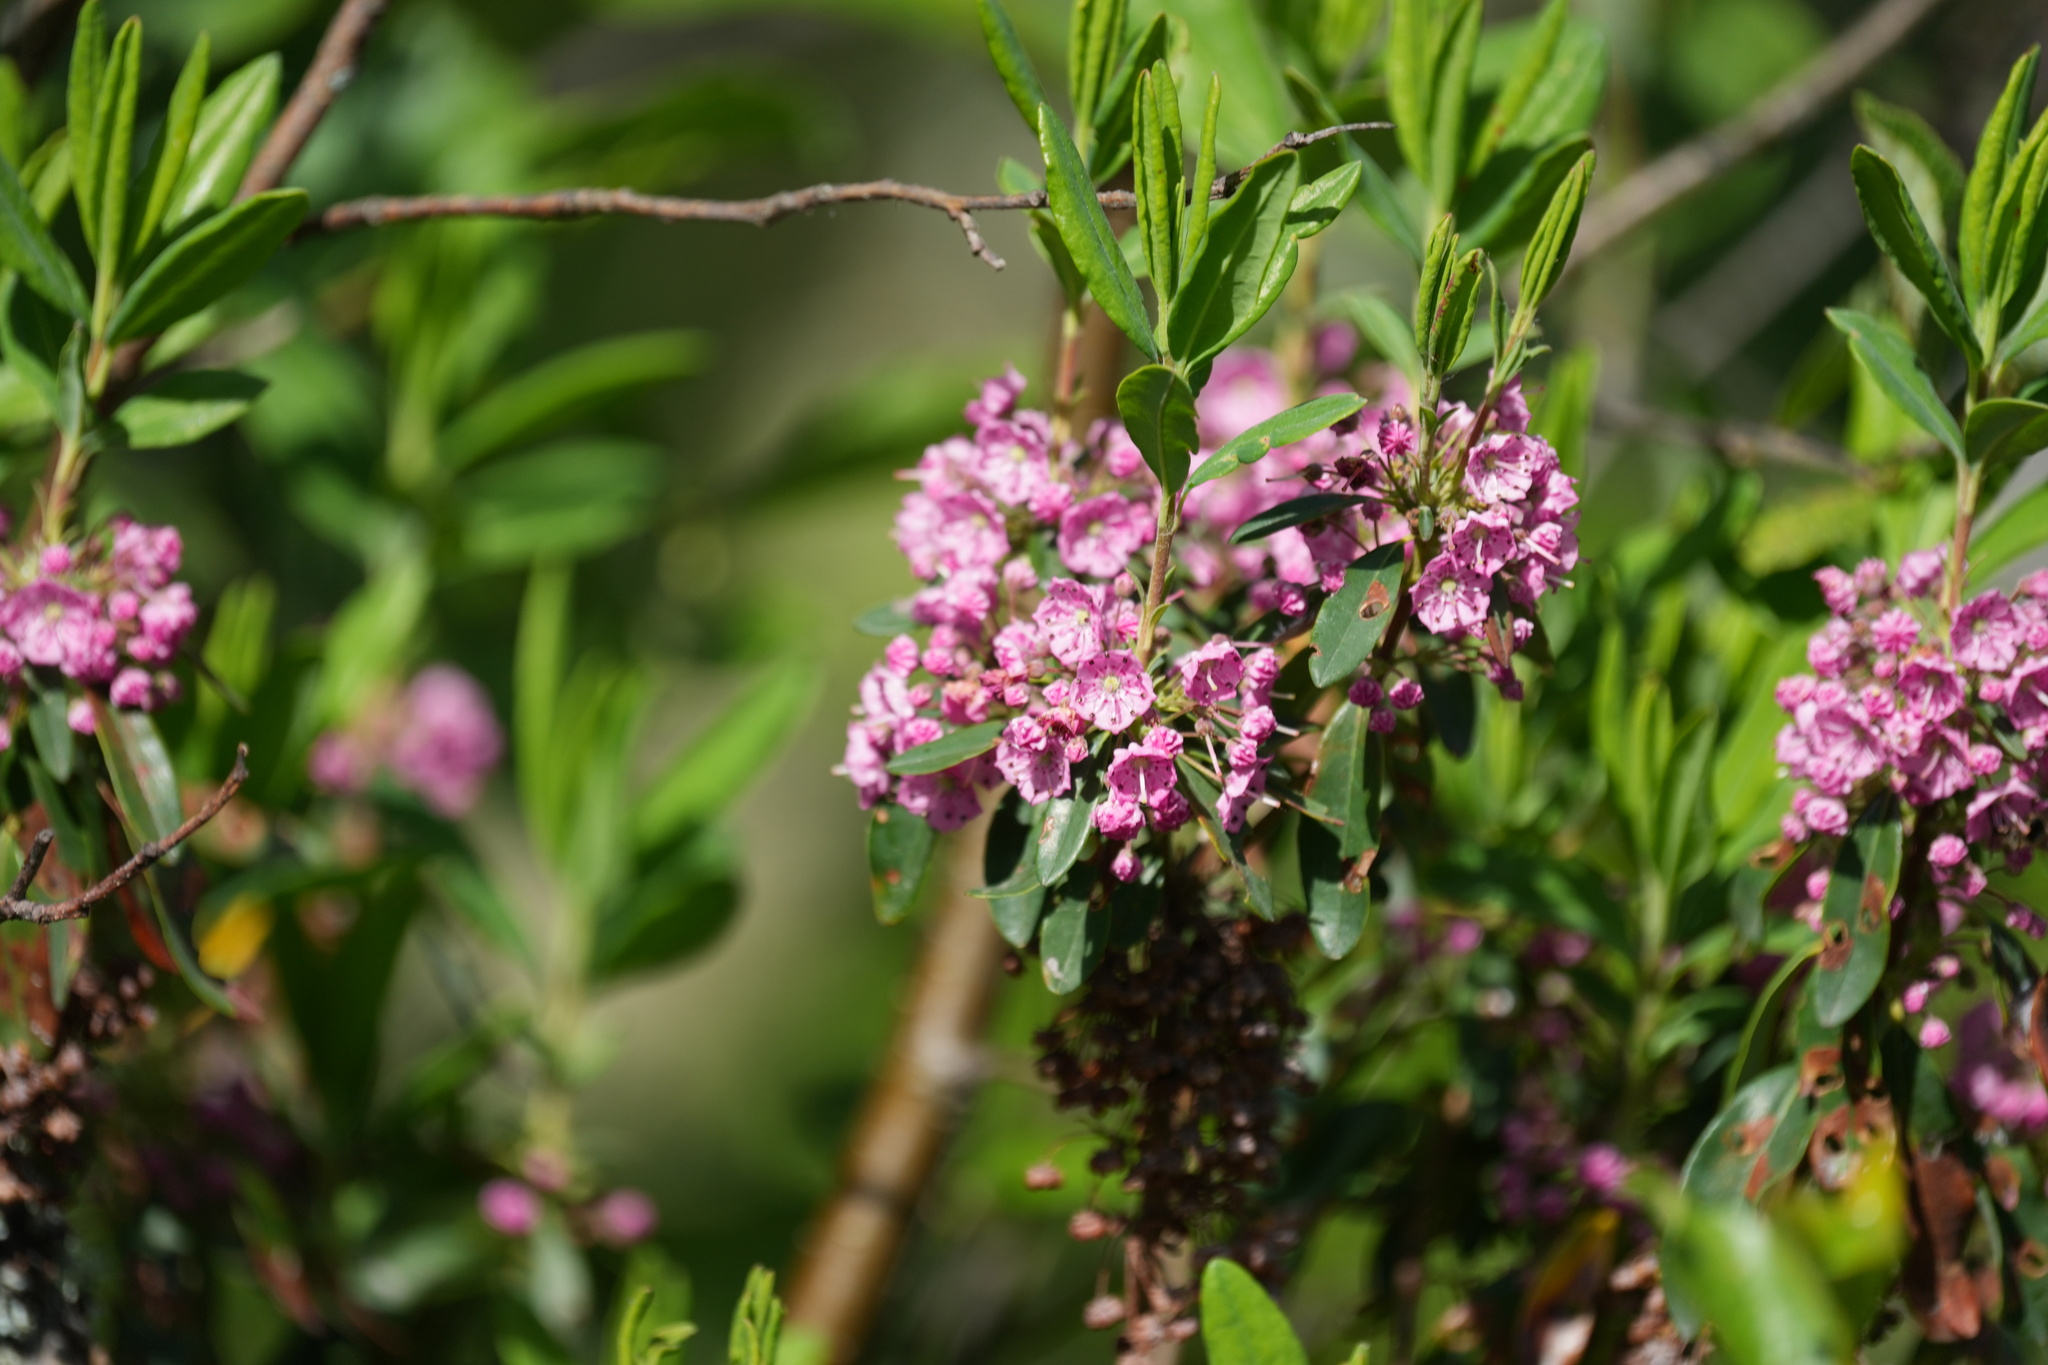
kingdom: Plantae
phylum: Tracheophyta
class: Magnoliopsida
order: Ericales
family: Ericaceae
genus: Kalmia
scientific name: Kalmia angustifolia
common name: Sheep-laurel
